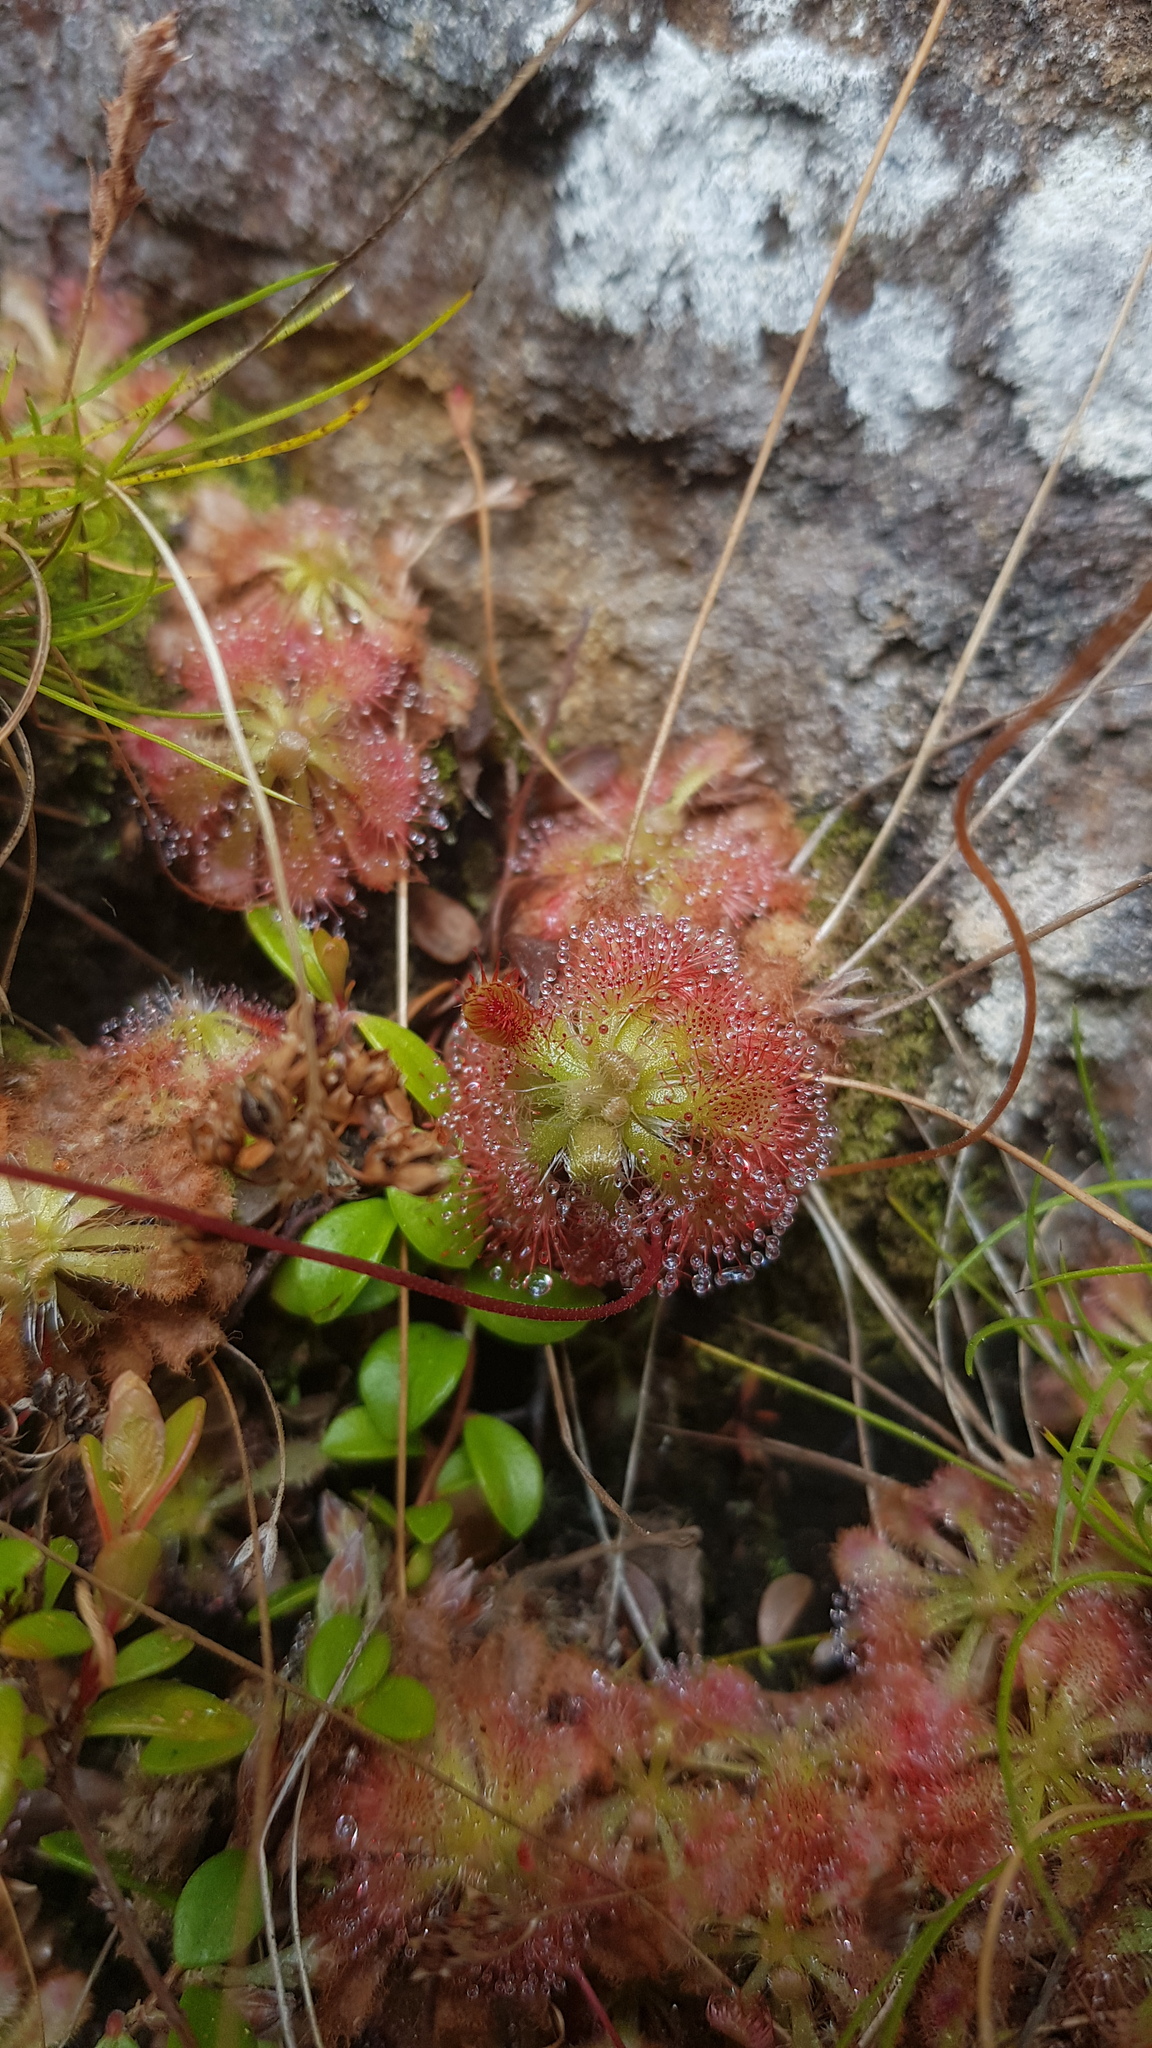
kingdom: Plantae
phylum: Tracheophyta
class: Magnoliopsida
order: Caryophyllales
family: Droseraceae
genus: Drosera
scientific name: Drosera spatulata
